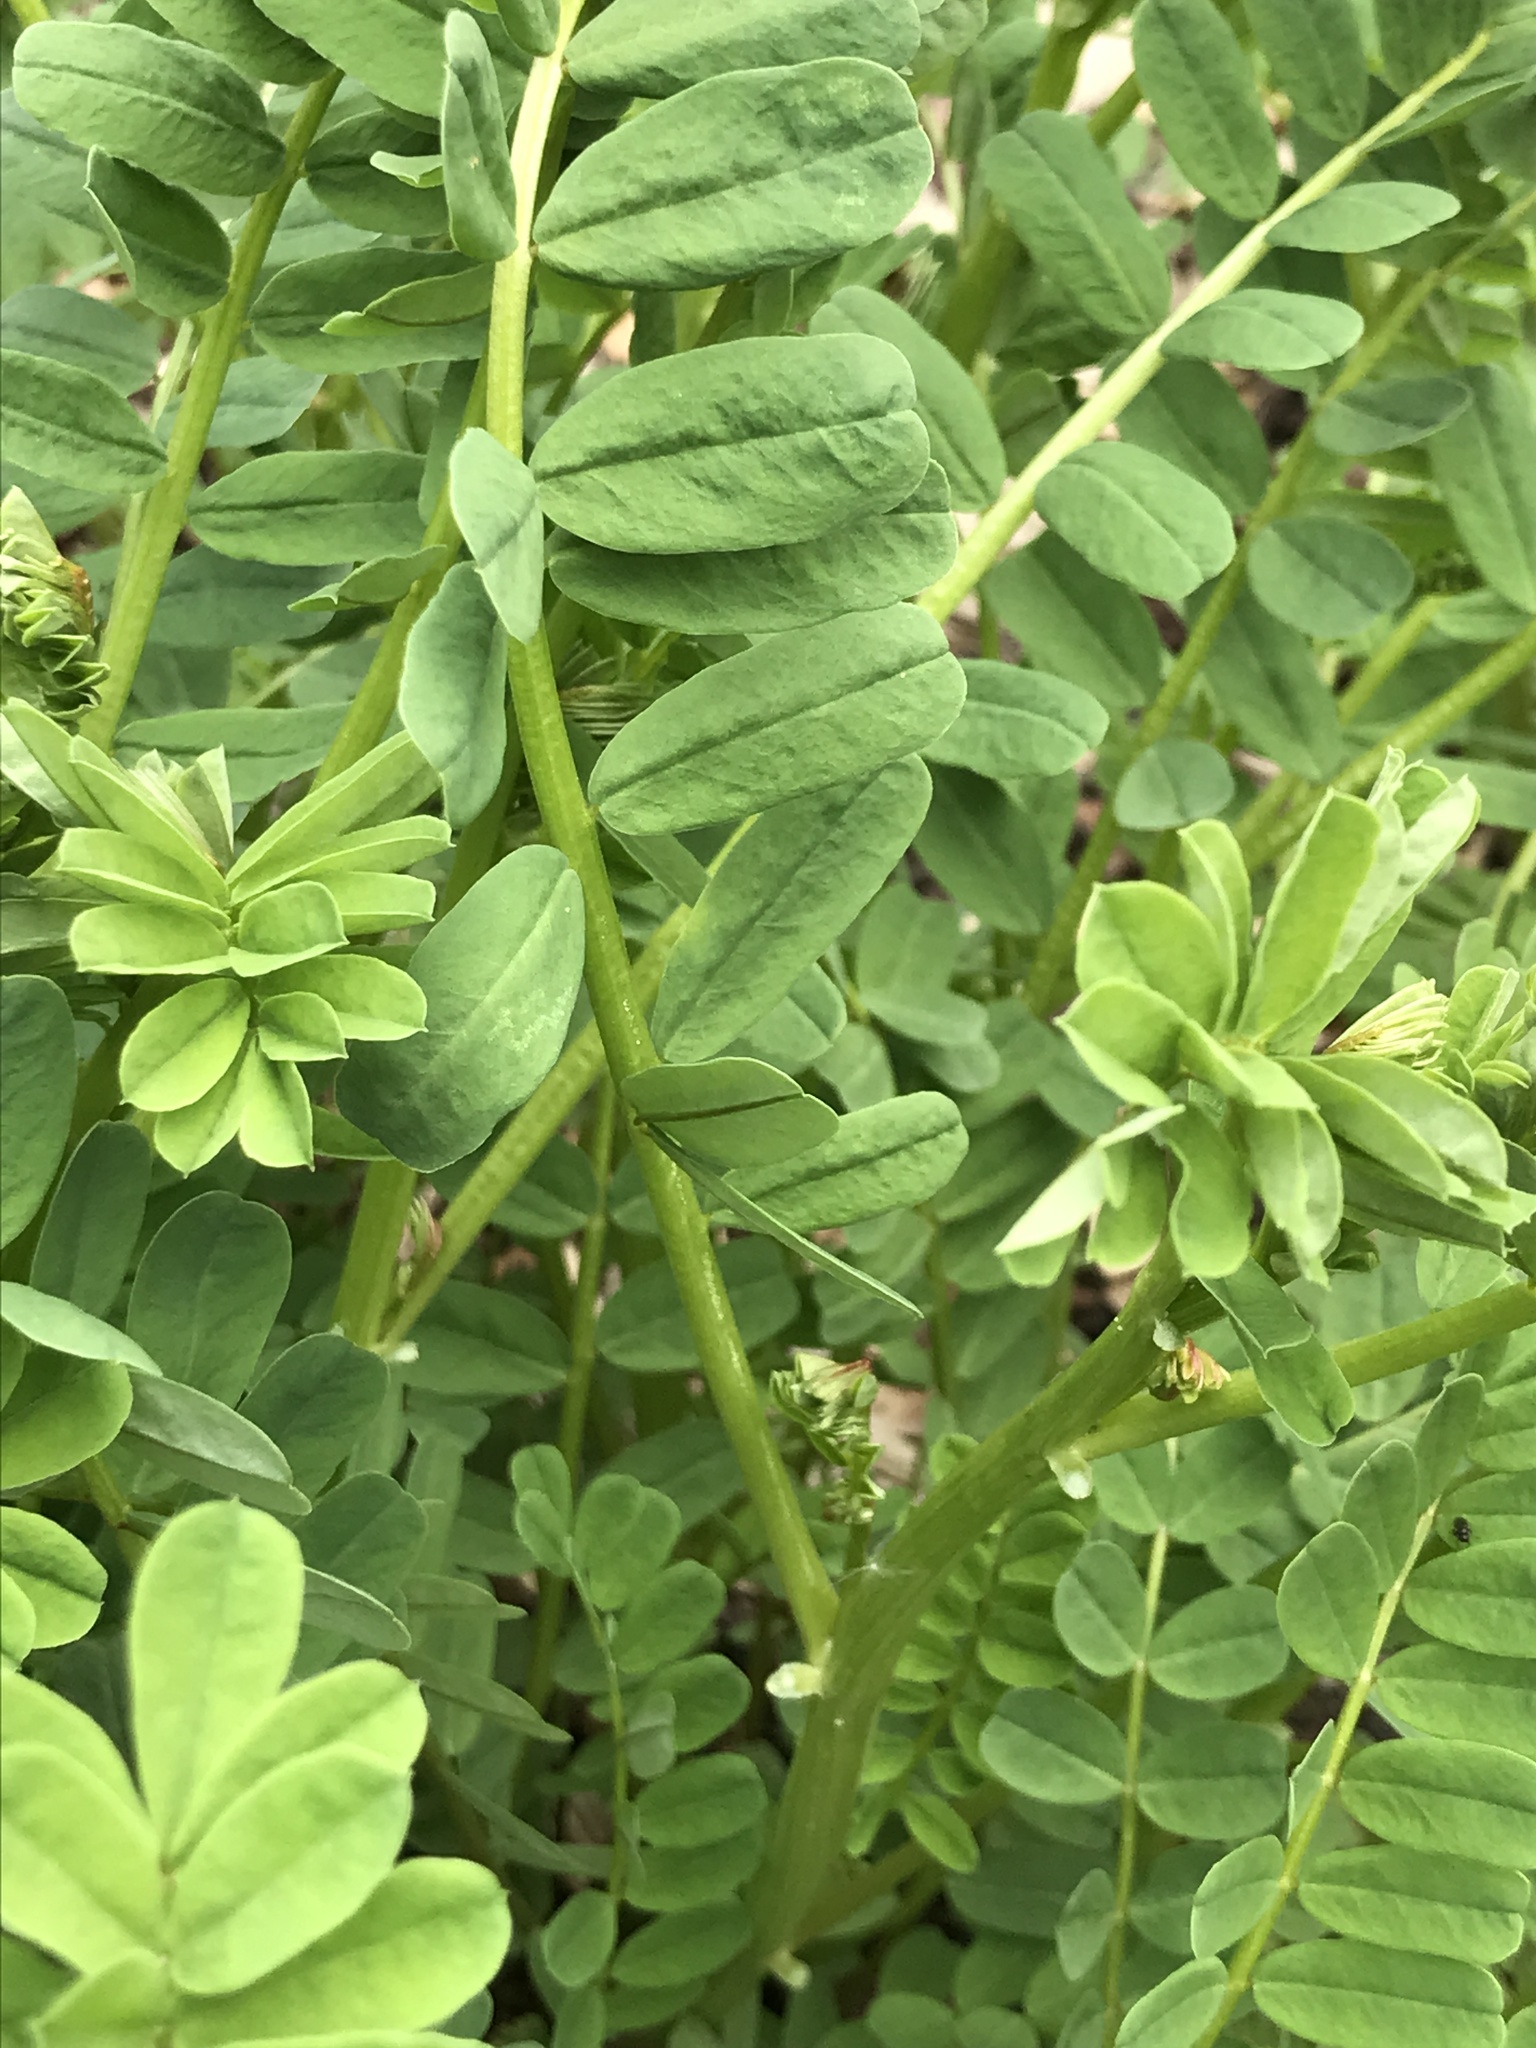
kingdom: Plantae
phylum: Tracheophyta
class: Magnoliopsida
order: Fabales
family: Fabaceae
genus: Coronilla
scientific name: Coronilla varia
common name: Crownvetch
